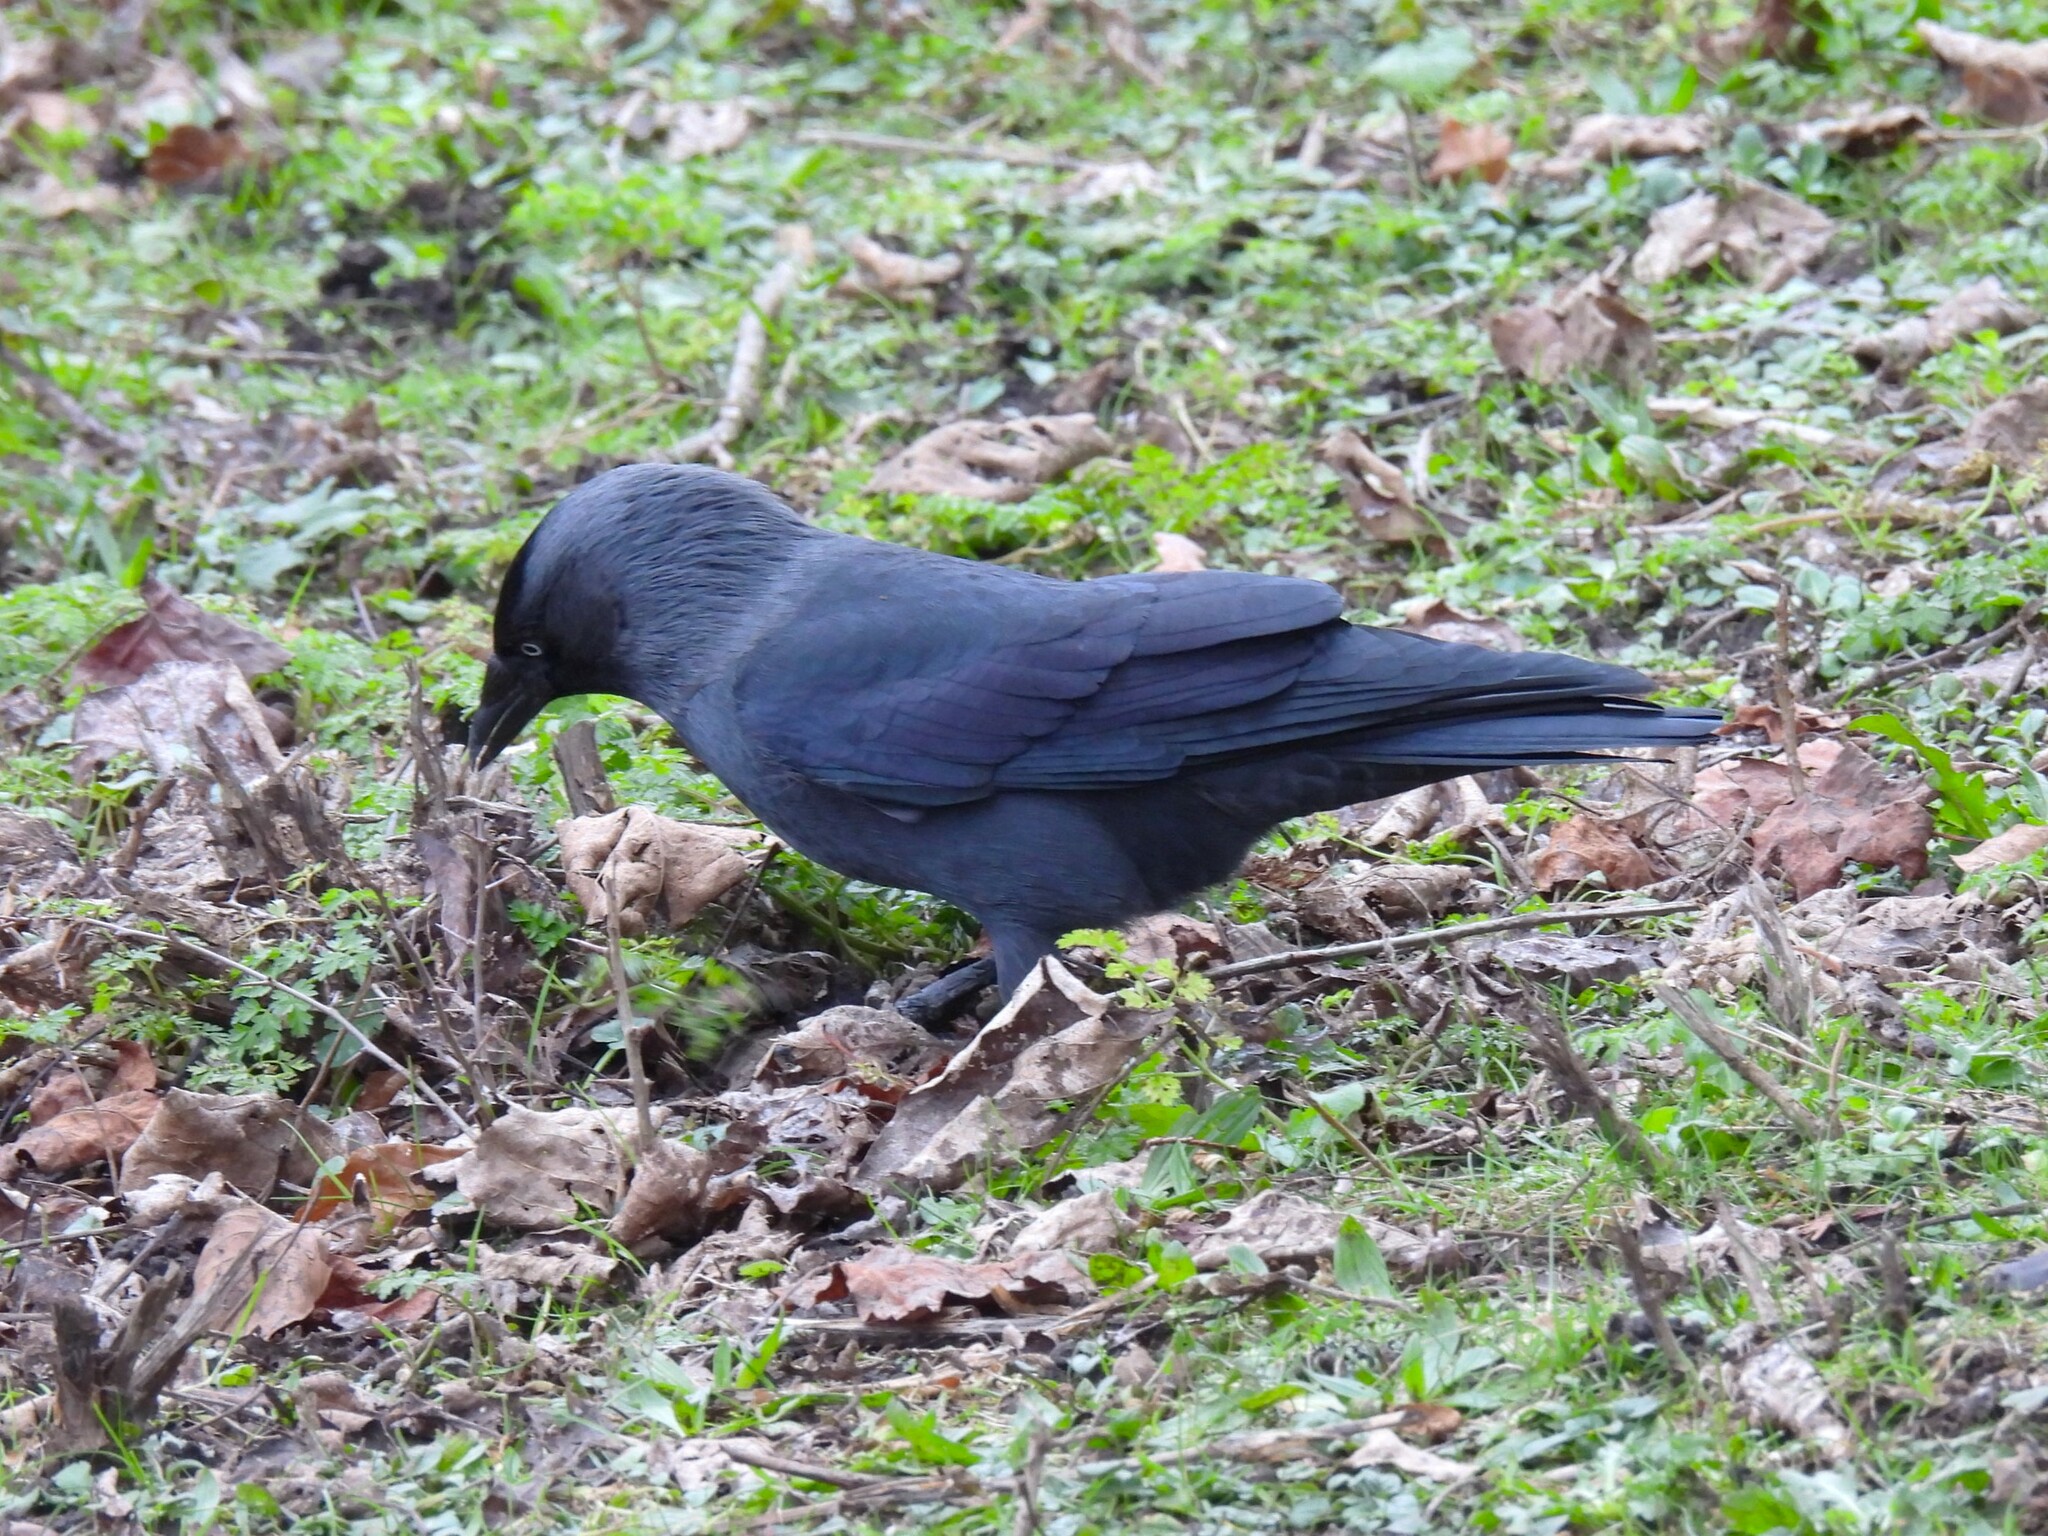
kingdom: Animalia
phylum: Chordata
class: Aves
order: Passeriformes
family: Corvidae
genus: Coloeus
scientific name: Coloeus monedula
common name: Western jackdaw
